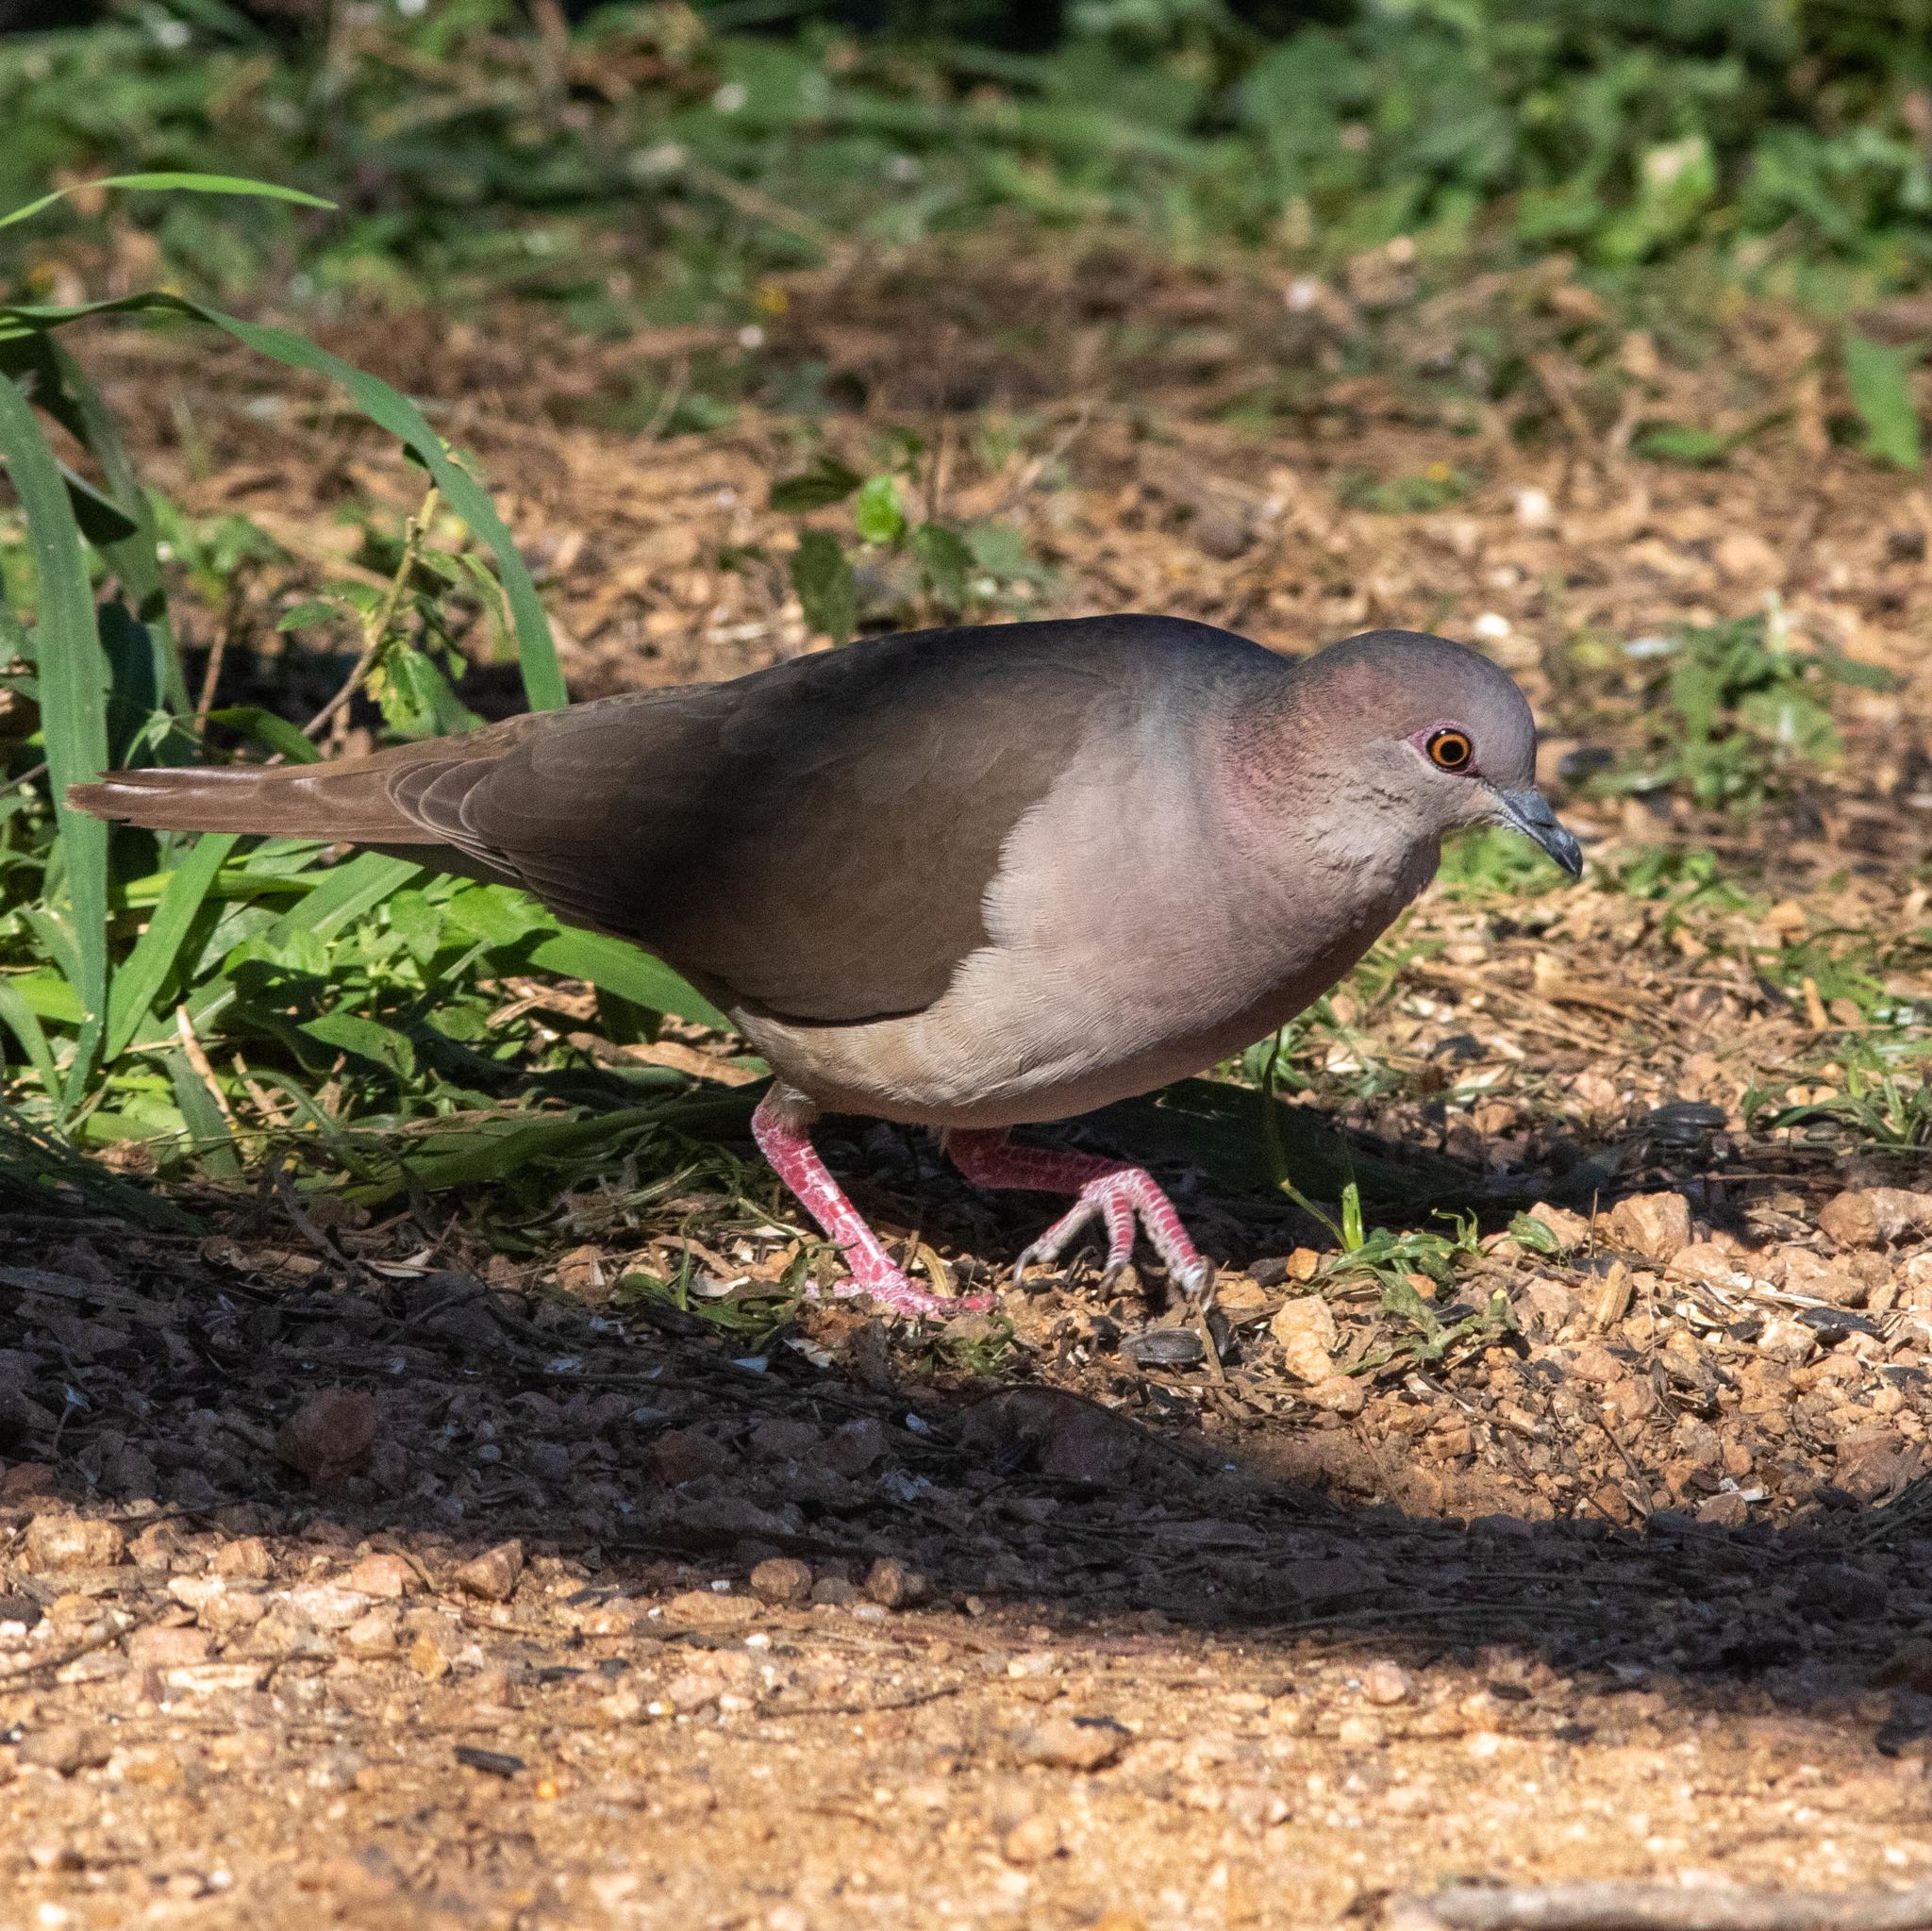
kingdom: Animalia
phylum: Chordata
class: Aves
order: Columbiformes
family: Columbidae
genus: Leptotila
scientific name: Leptotila verreauxi
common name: White-tipped dove
